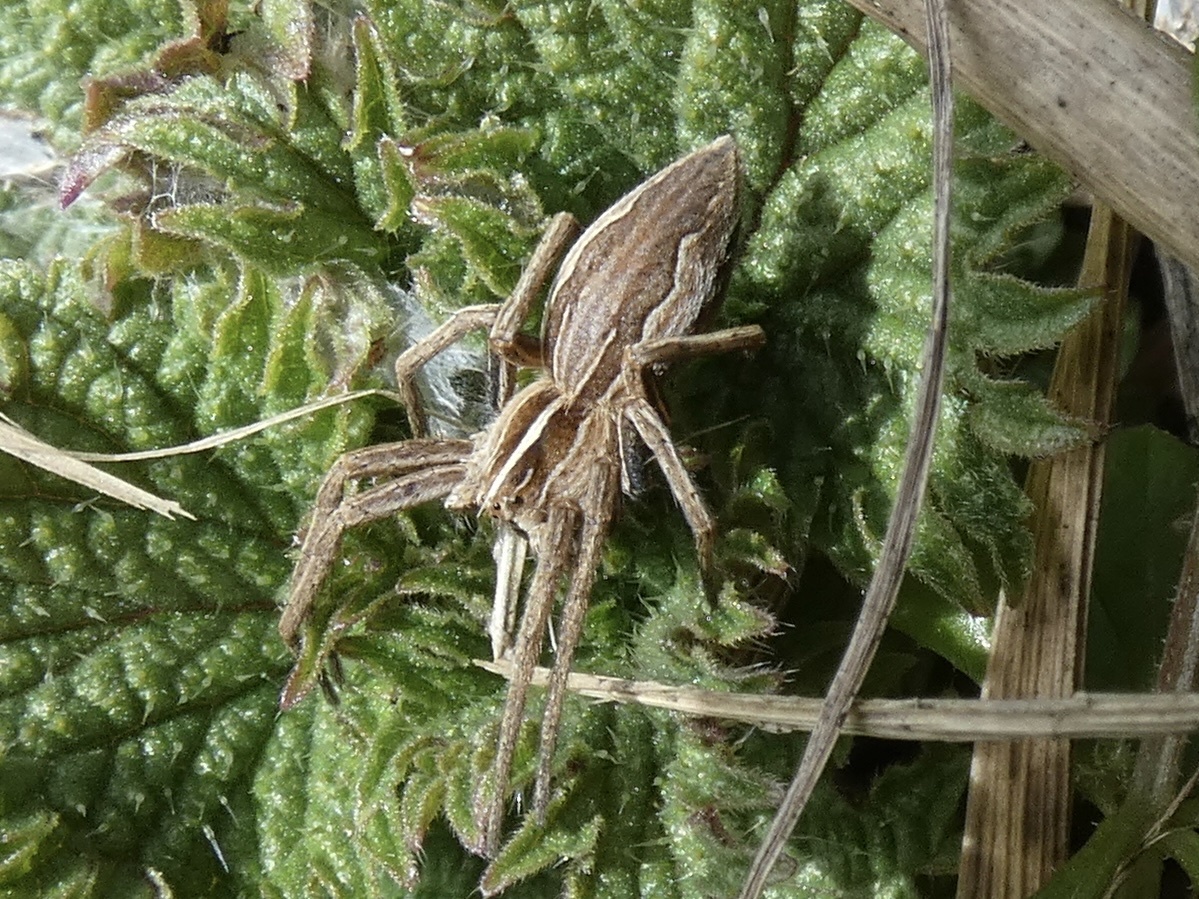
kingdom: Animalia
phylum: Arthropoda
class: Arachnida
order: Araneae
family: Pisauridae
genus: Pisaura
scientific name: Pisaura mirabilis
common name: Tent spider
